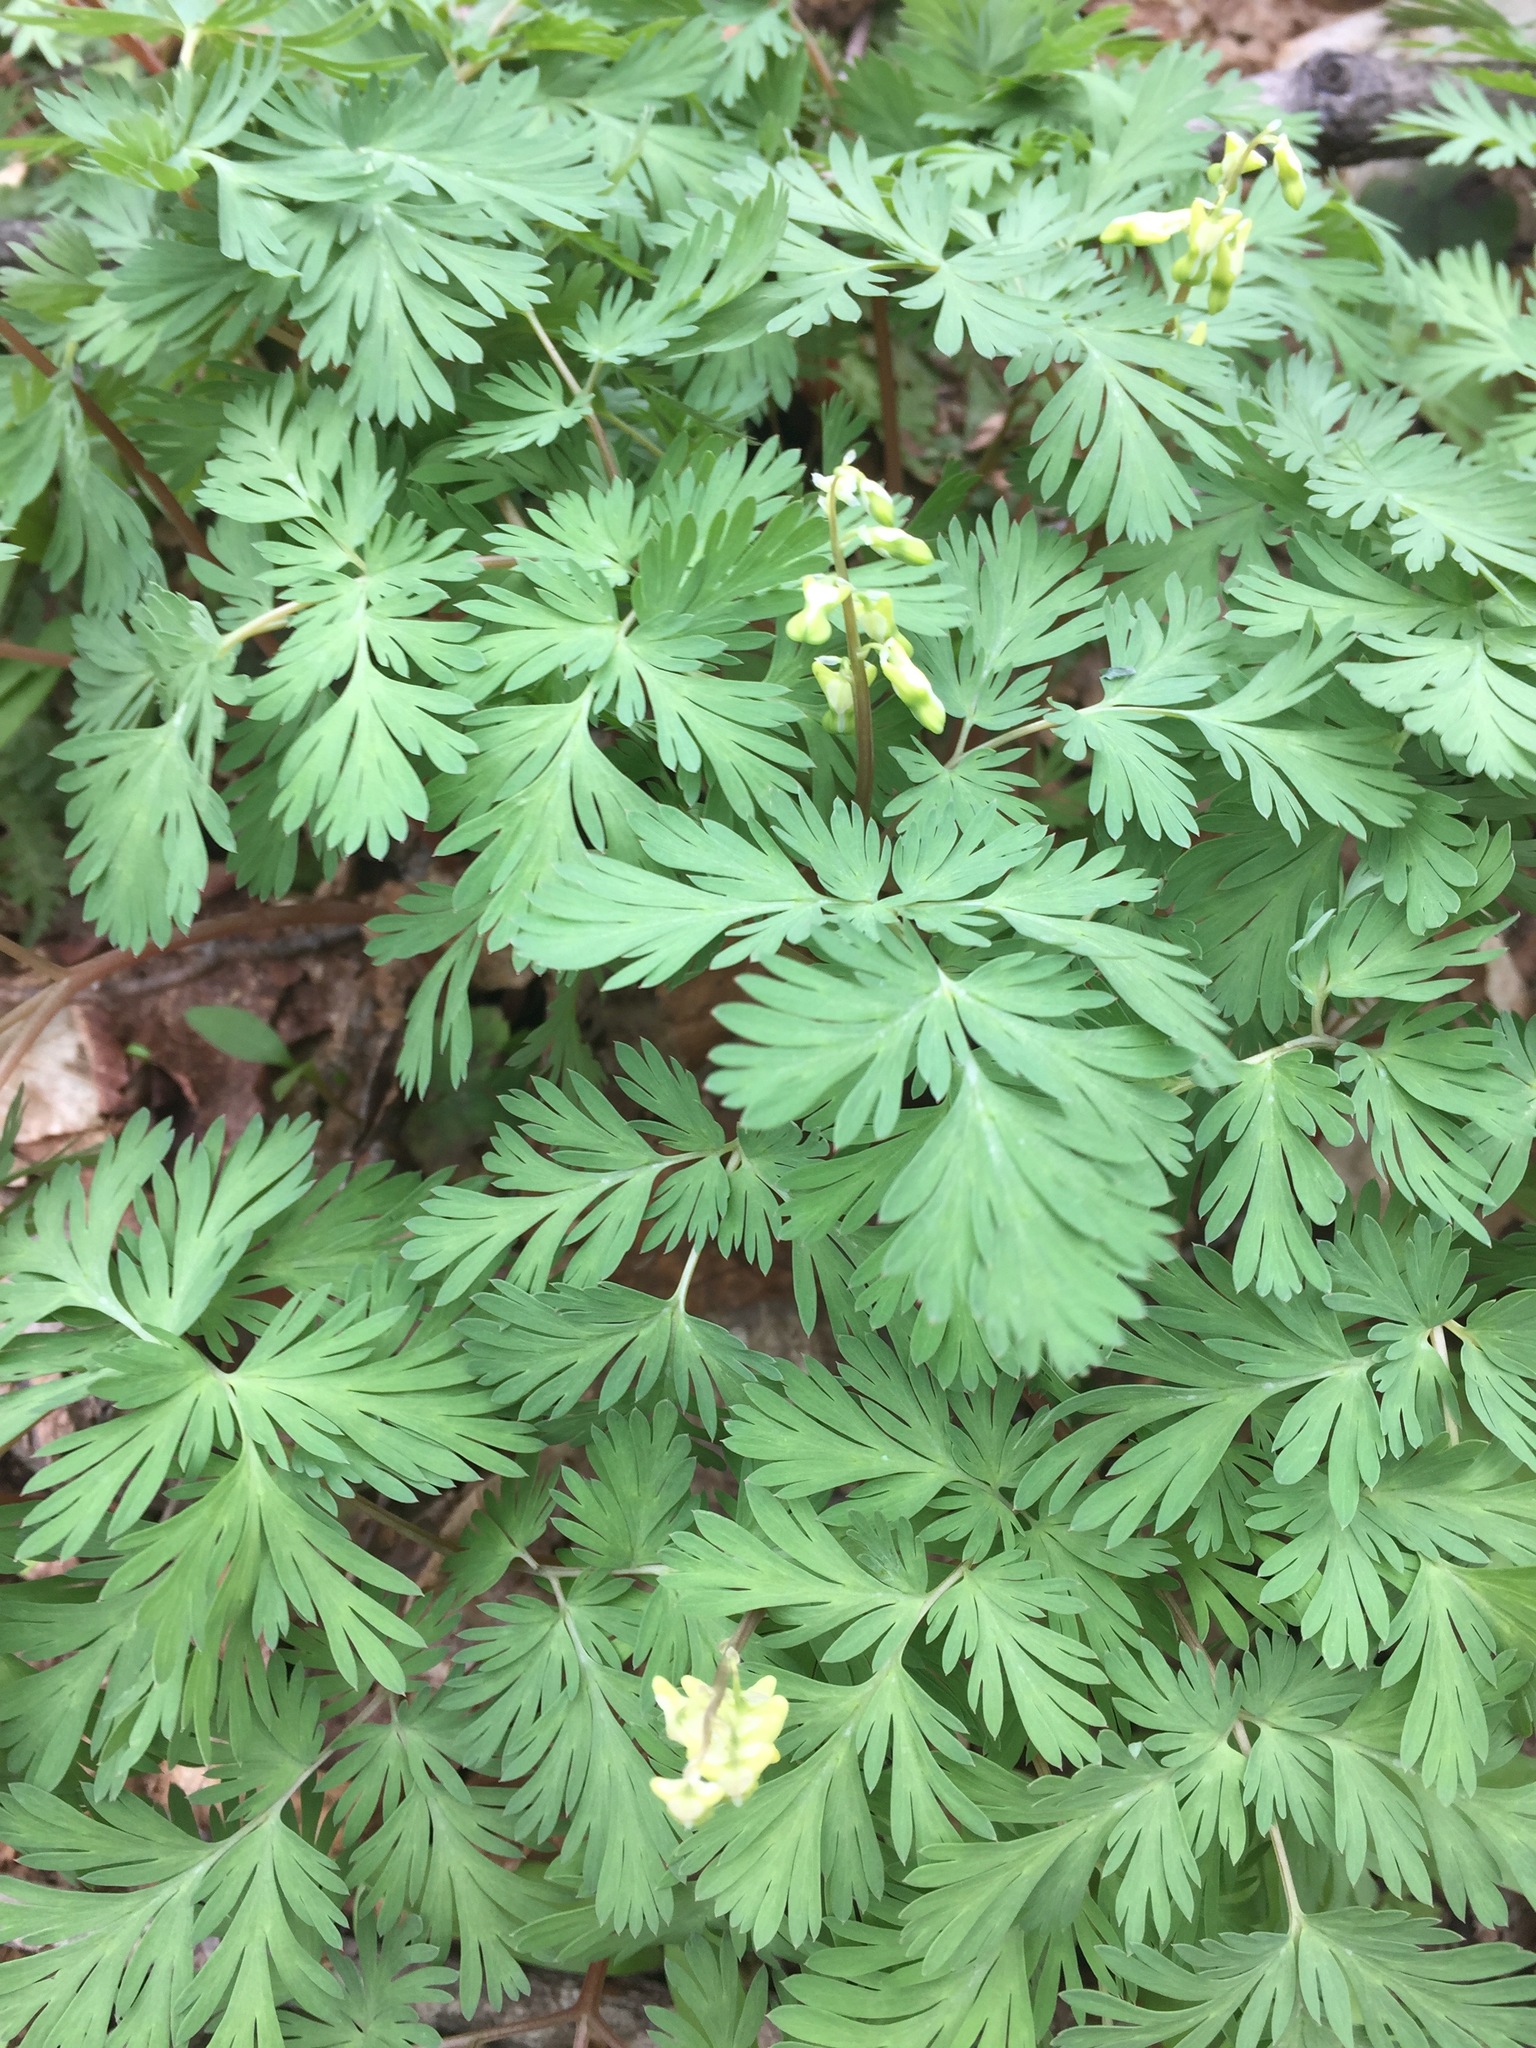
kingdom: Plantae
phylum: Tracheophyta
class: Magnoliopsida
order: Ranunculales
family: Papaveraceae
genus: Dicentra
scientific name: Dicentra cucullaria
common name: Dutchman's breeches
